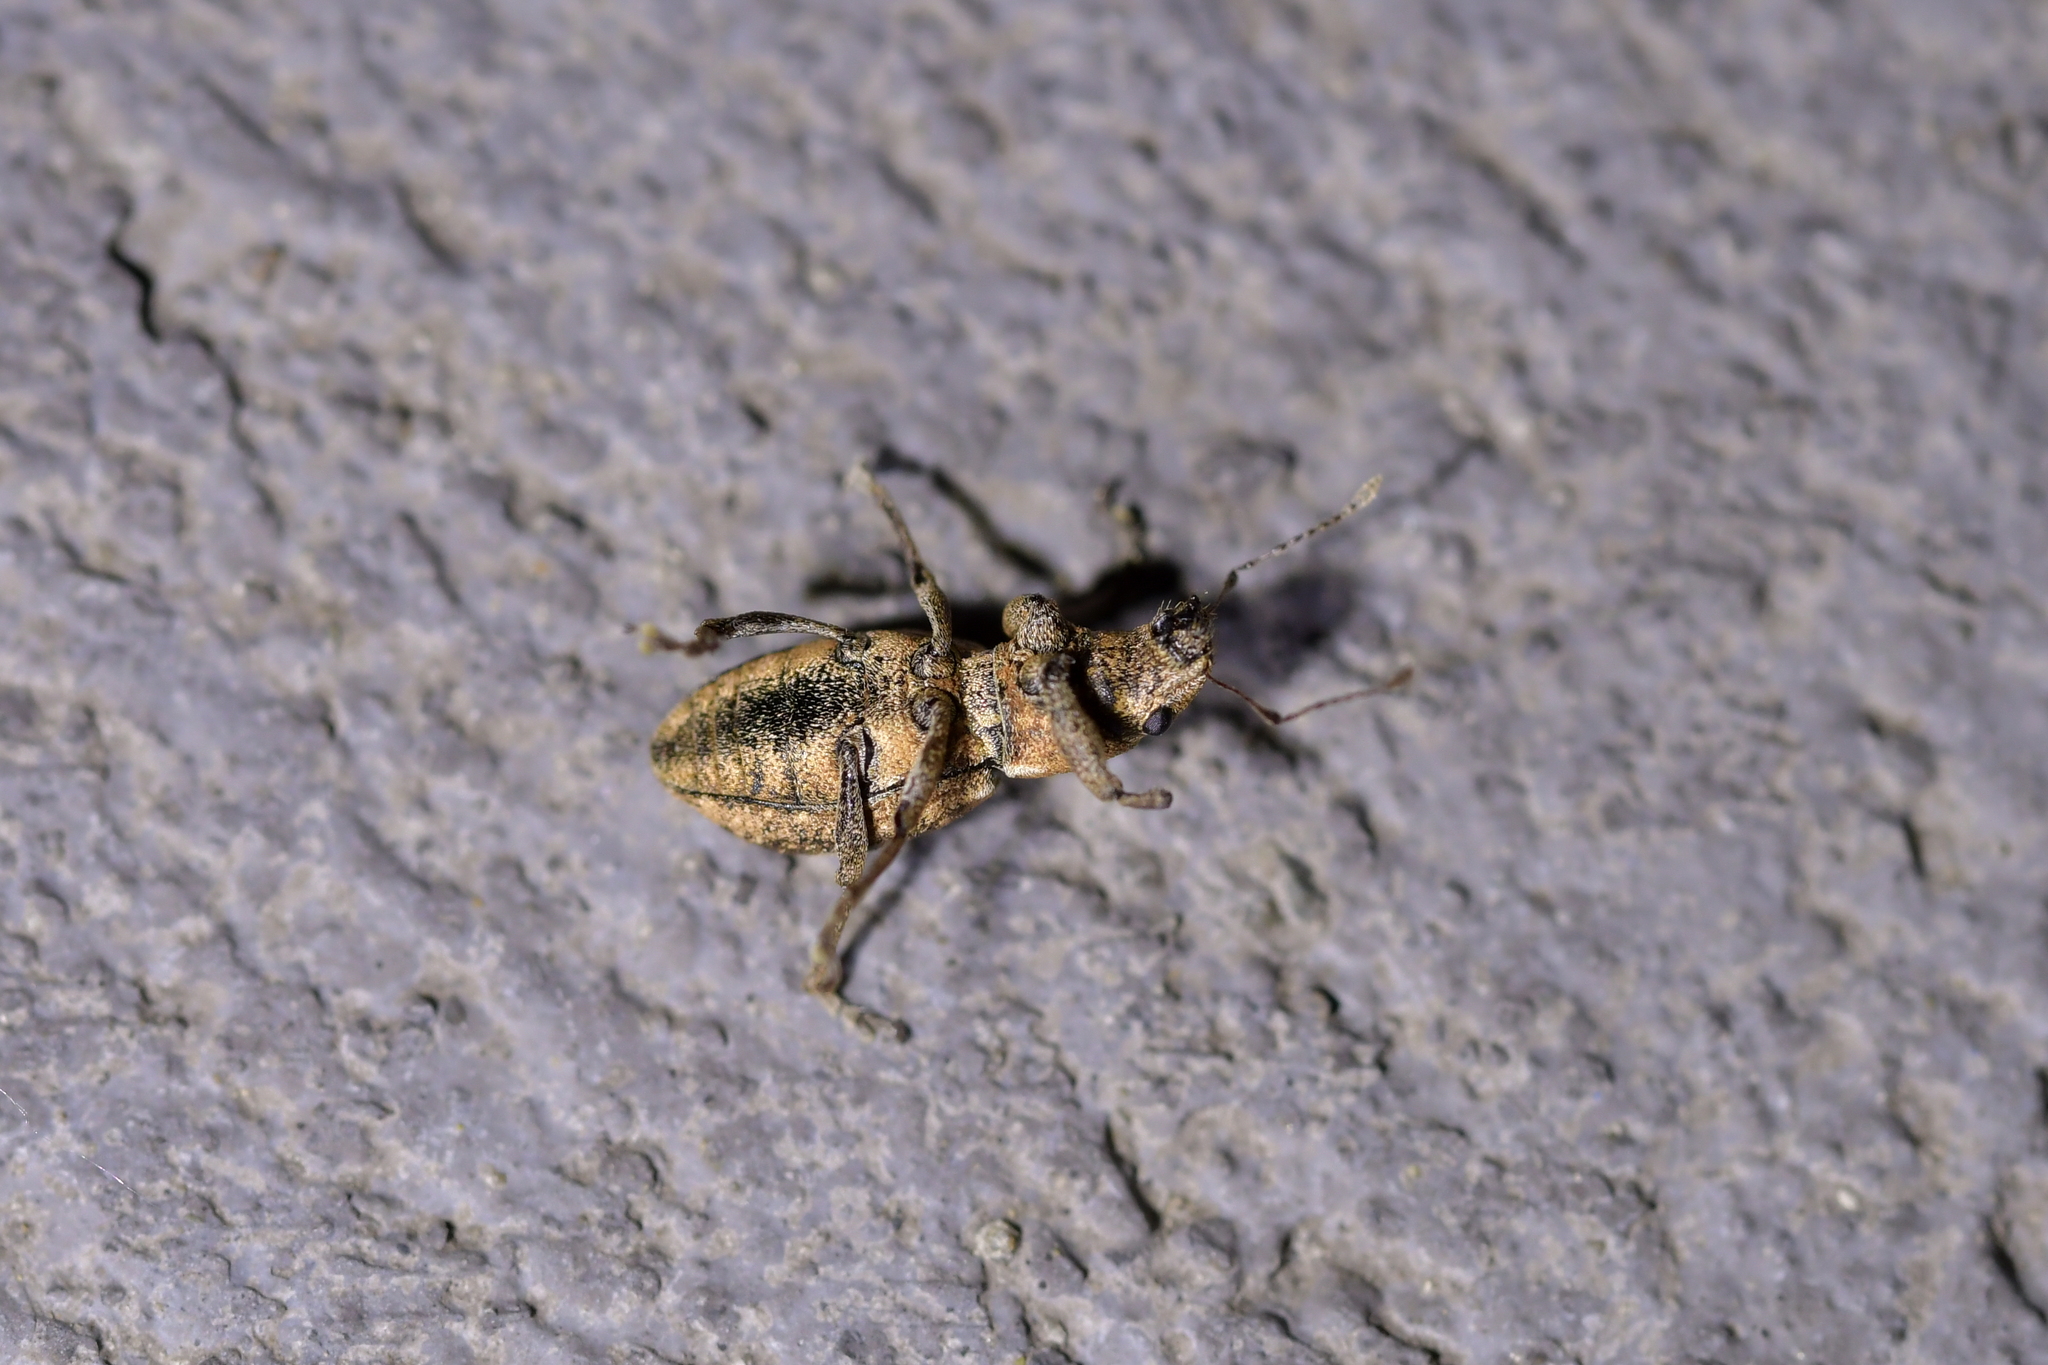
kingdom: Animalia
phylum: Arthropoda
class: Insecta
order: Coleoptera
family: Curculionidae
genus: Naupactus
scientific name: Naupactus cervinus
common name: Fuller rose beetle
